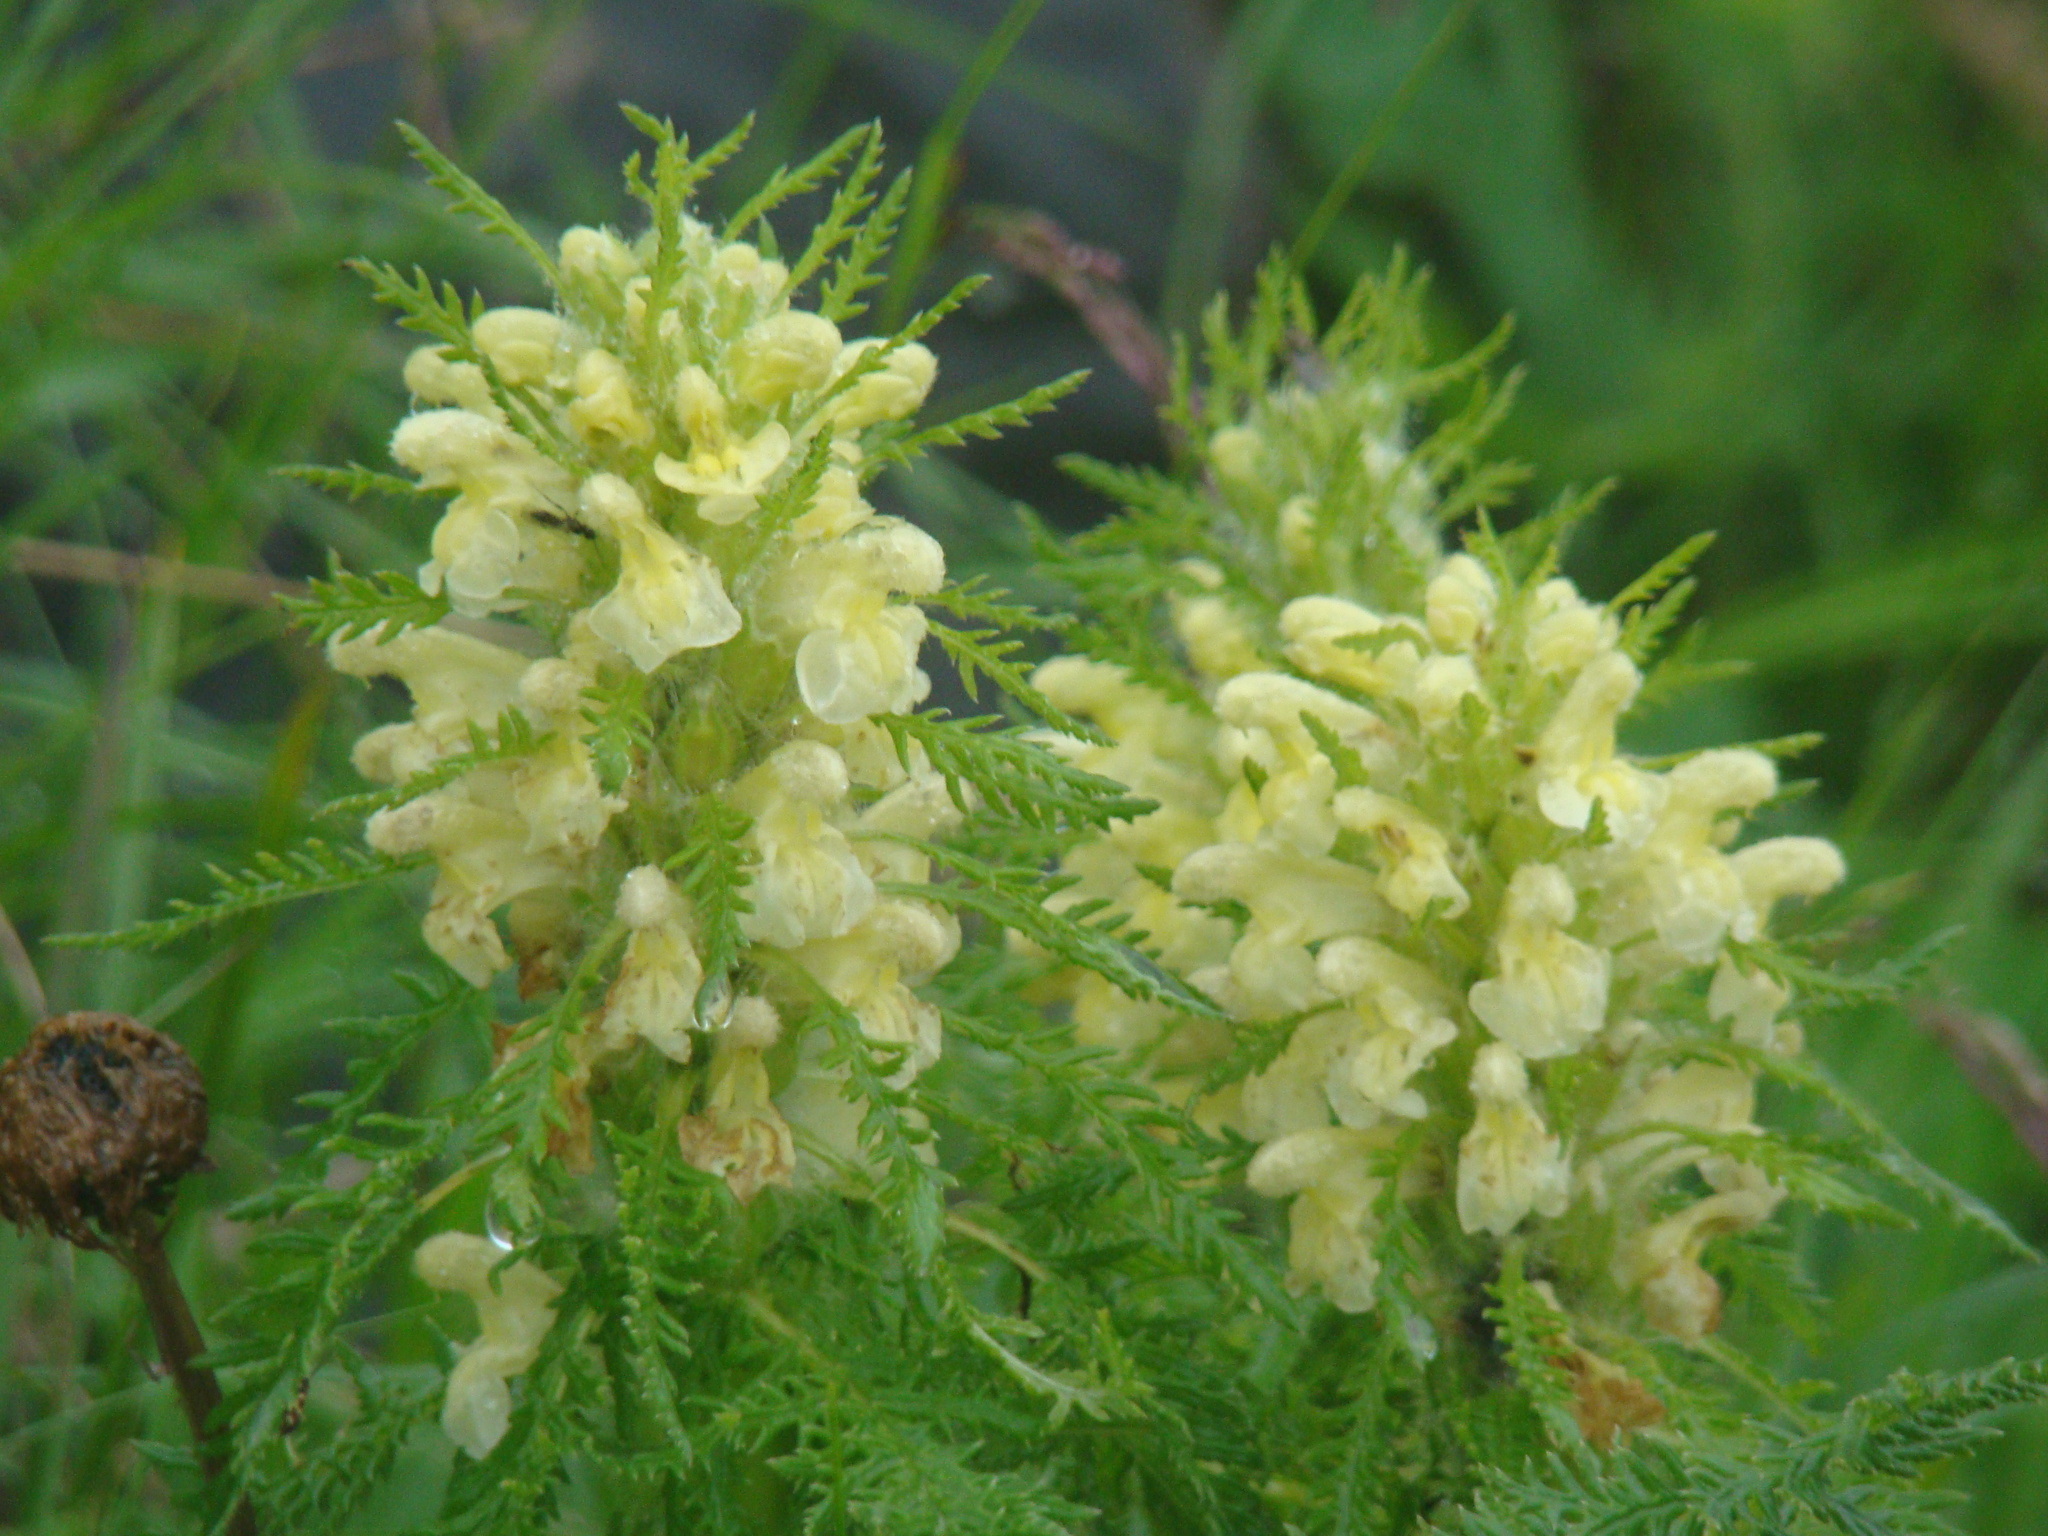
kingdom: Plantae
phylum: Tracheophyta
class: Magnoliopsida
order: Lamiales
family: Orobanchaceae
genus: Pedicularis
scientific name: Pedicularis foliosa
